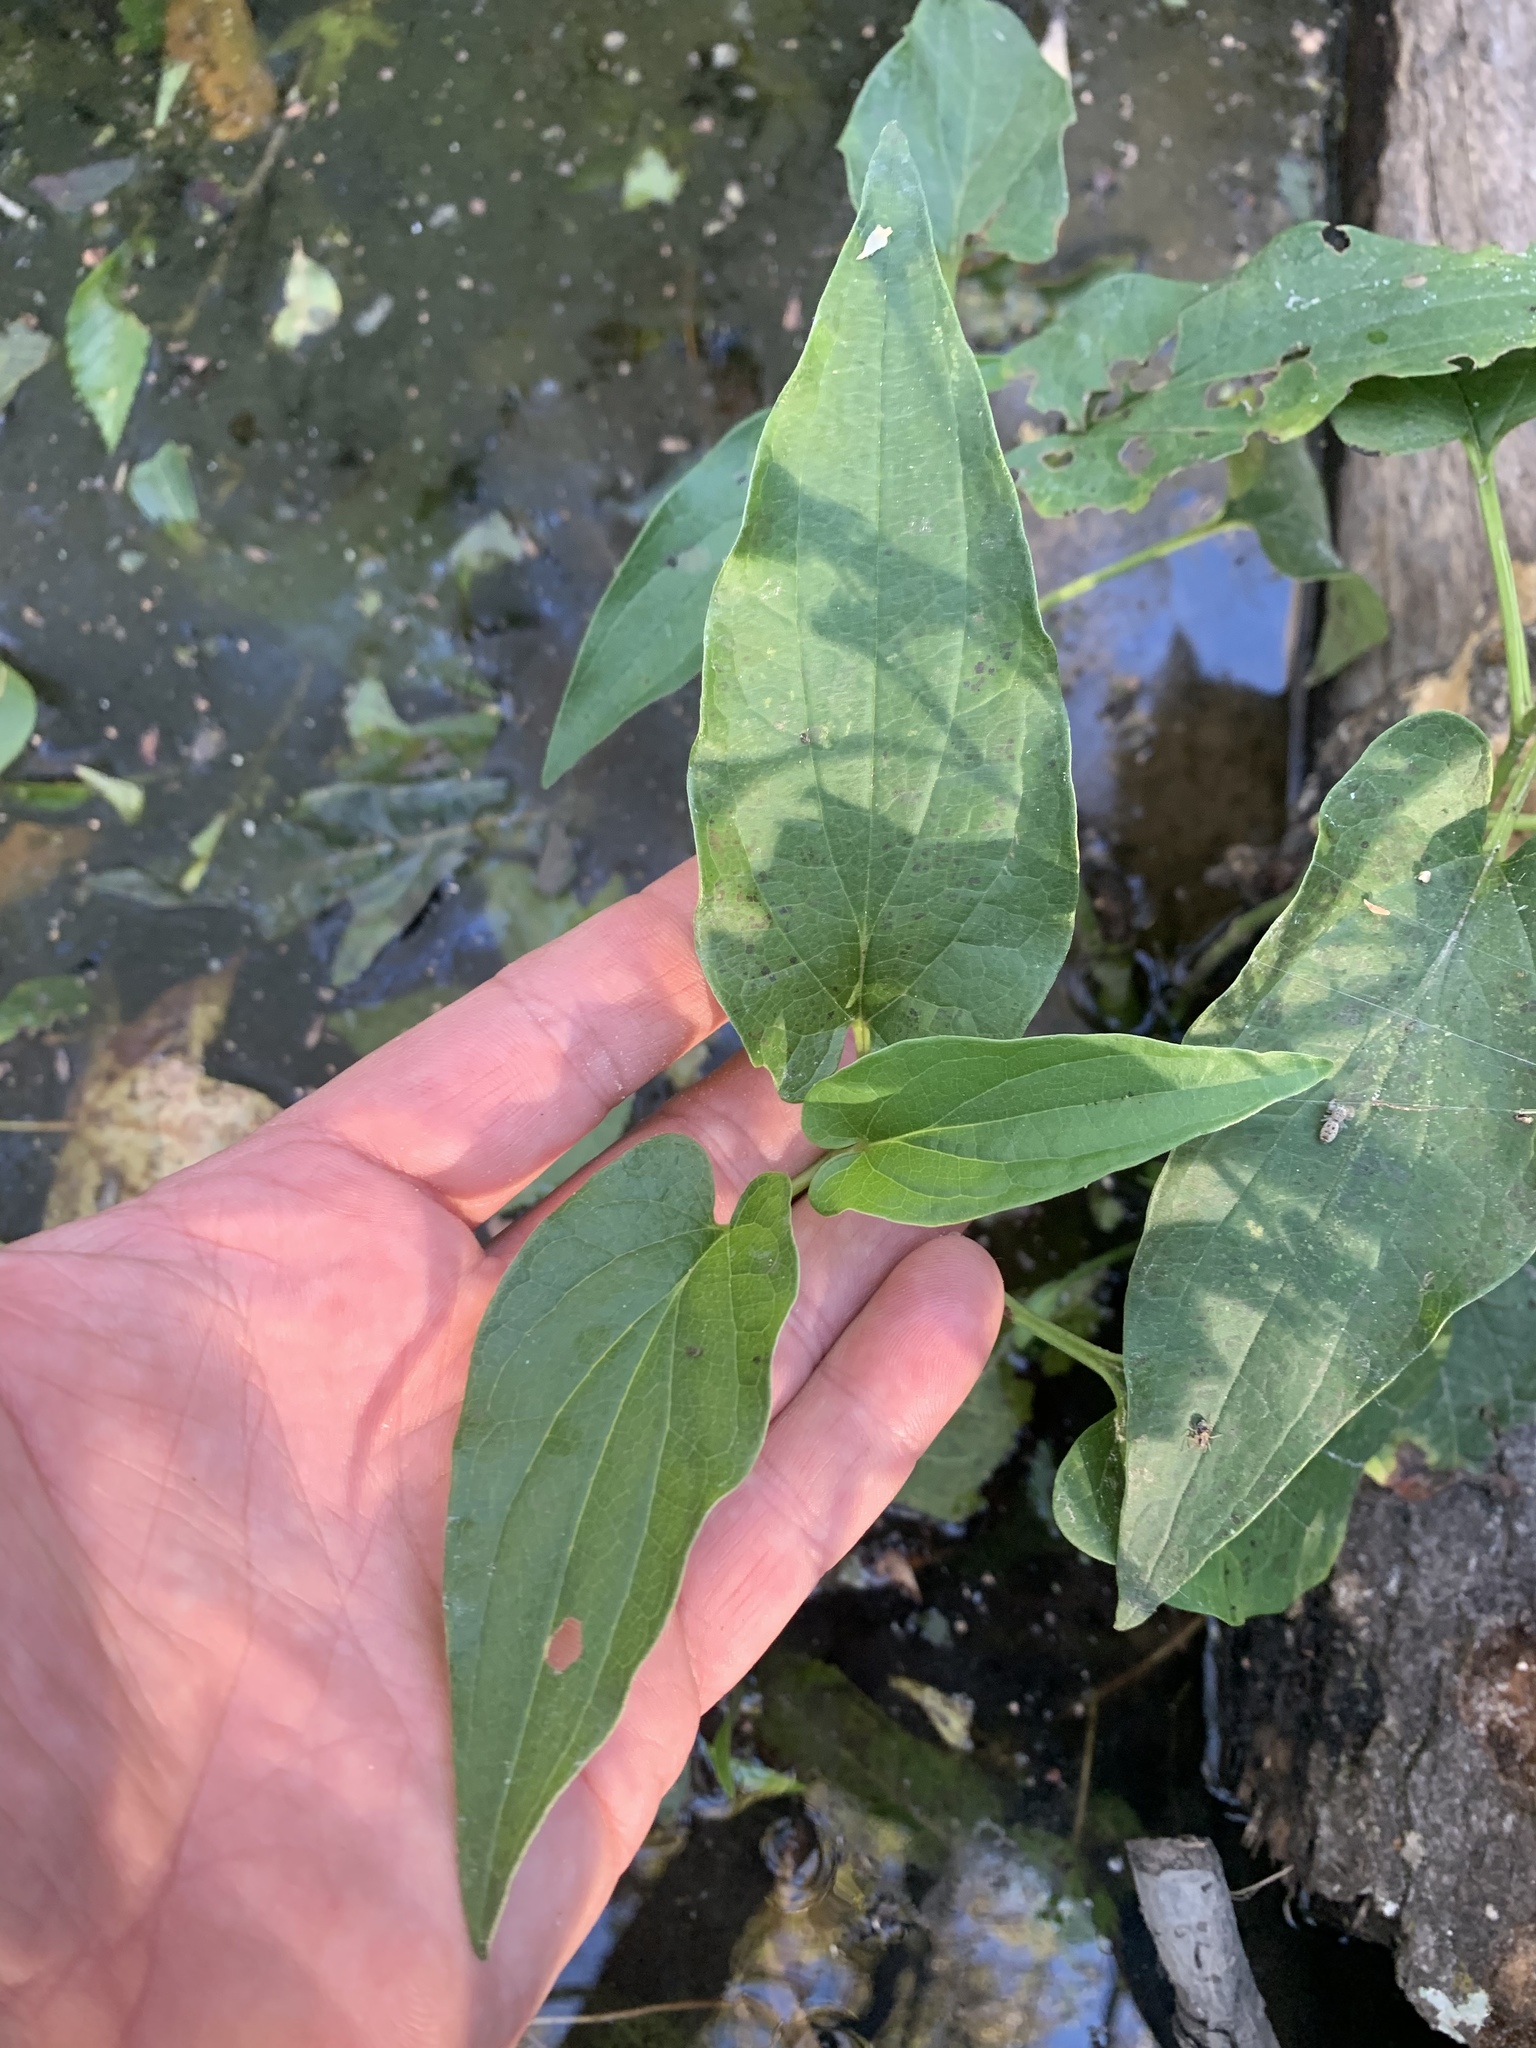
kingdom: Plantae
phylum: Tracheophyta
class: Magnoliopsida
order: Piperales
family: Saururaceae
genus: Saururus
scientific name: Saururus cernuus
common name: Lizard's-tail
